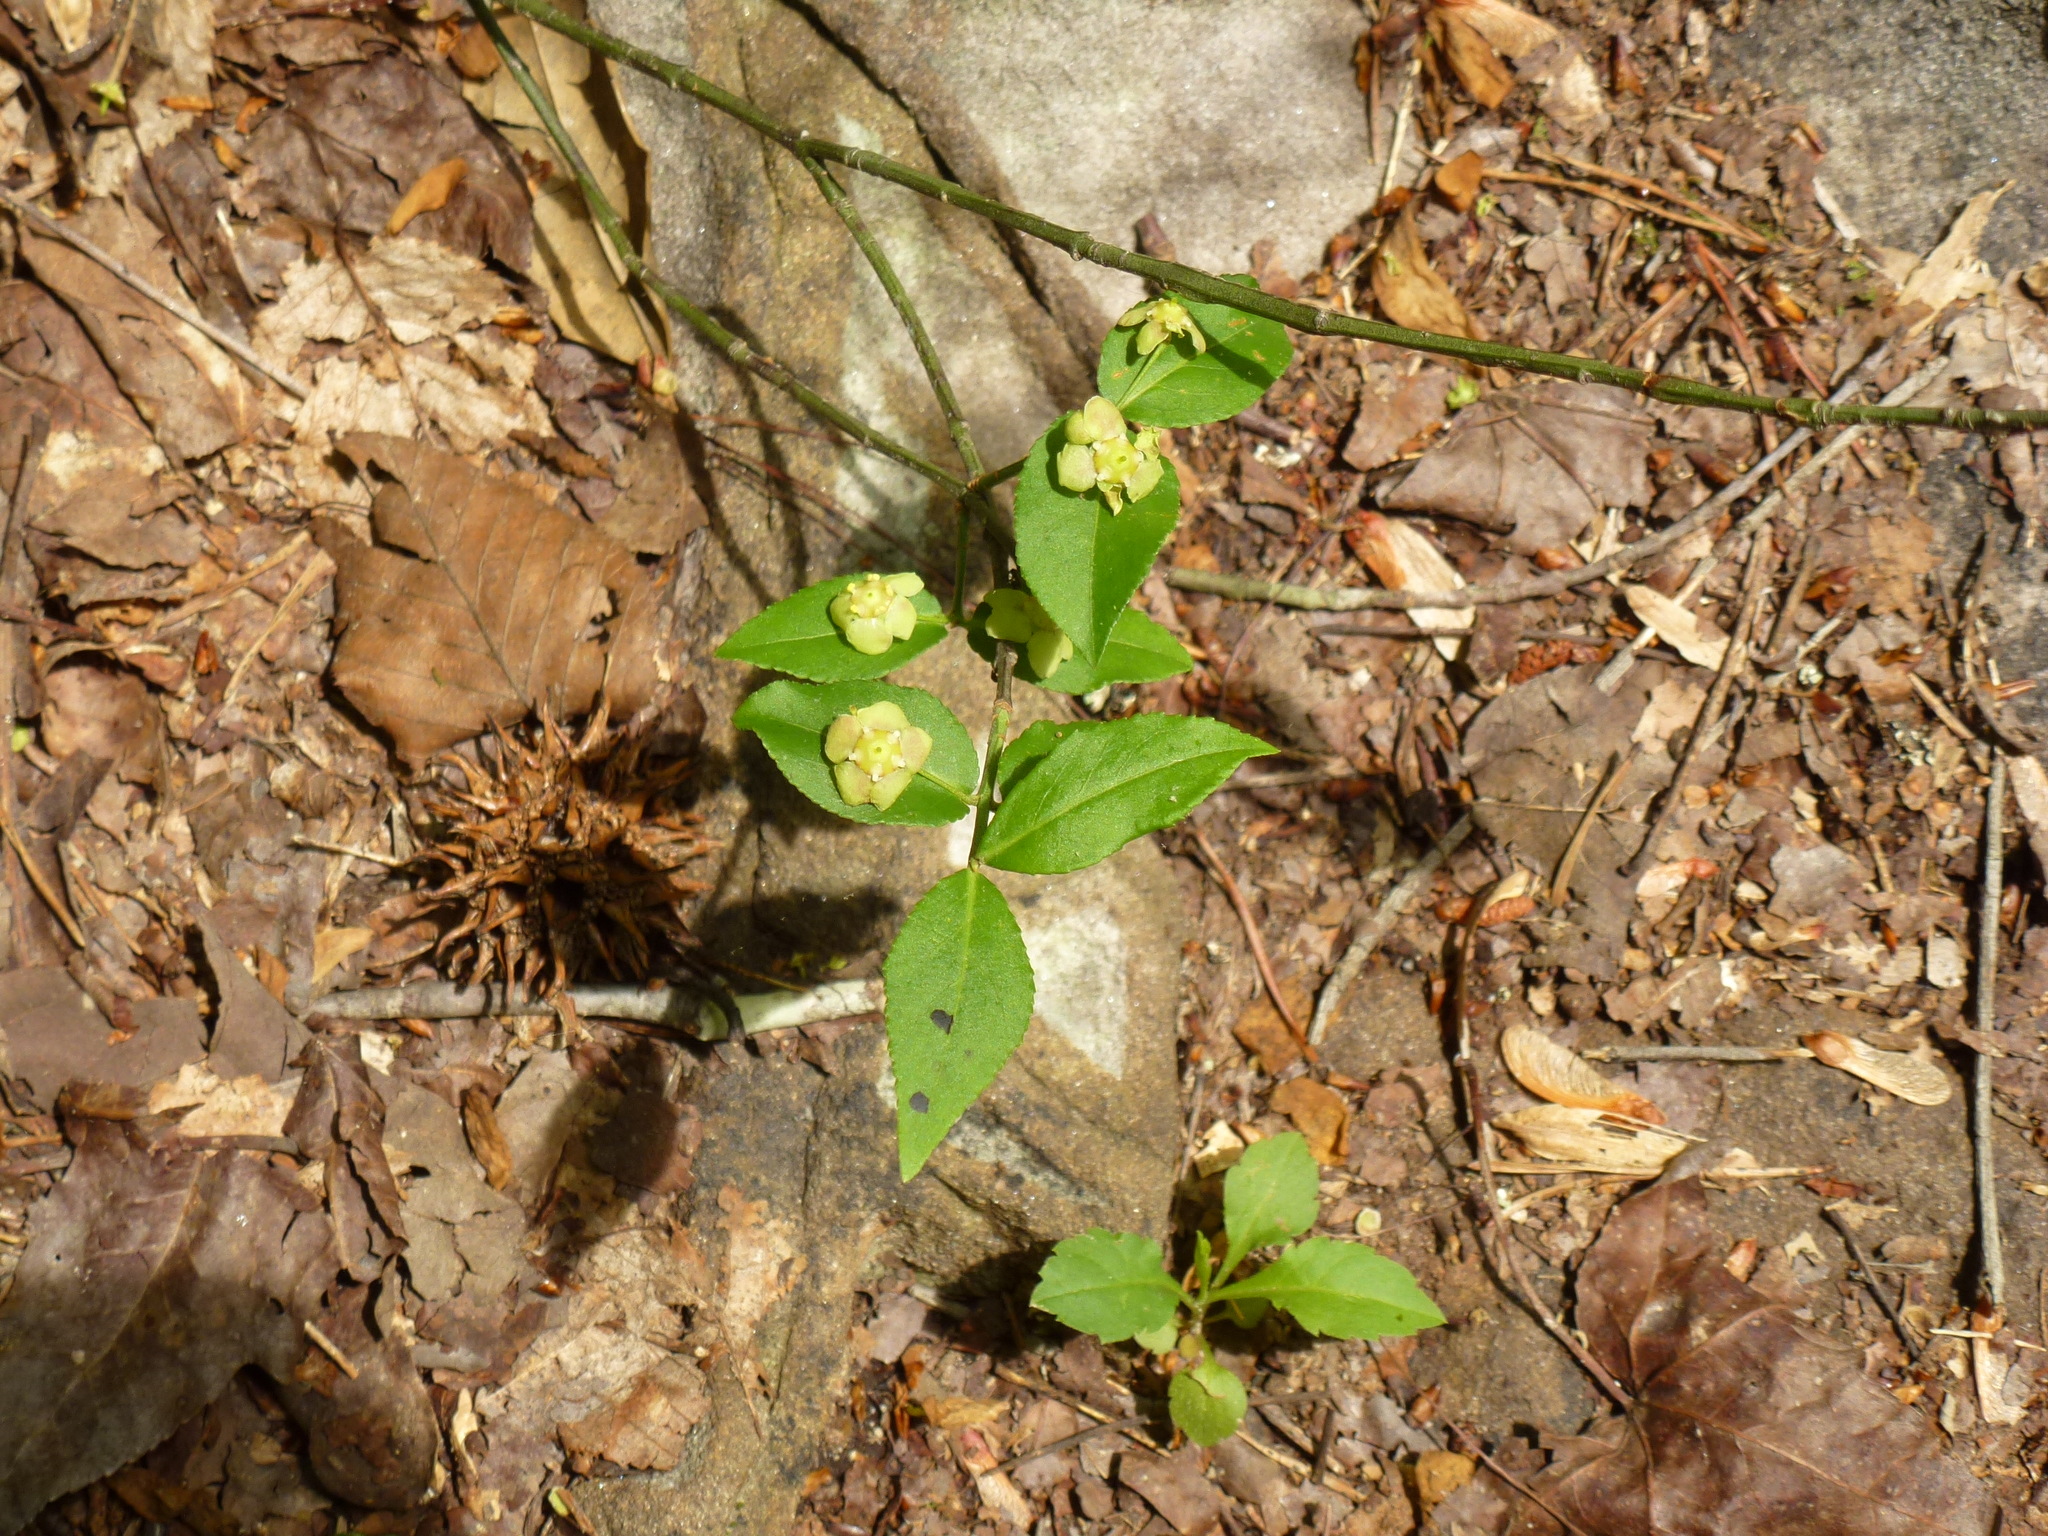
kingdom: Plantae
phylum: Tracheophyta
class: Magnoliopsida
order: Celastrales
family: Celastraceae
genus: Euonymus
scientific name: Euonymus americanus
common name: Bursting-heart
